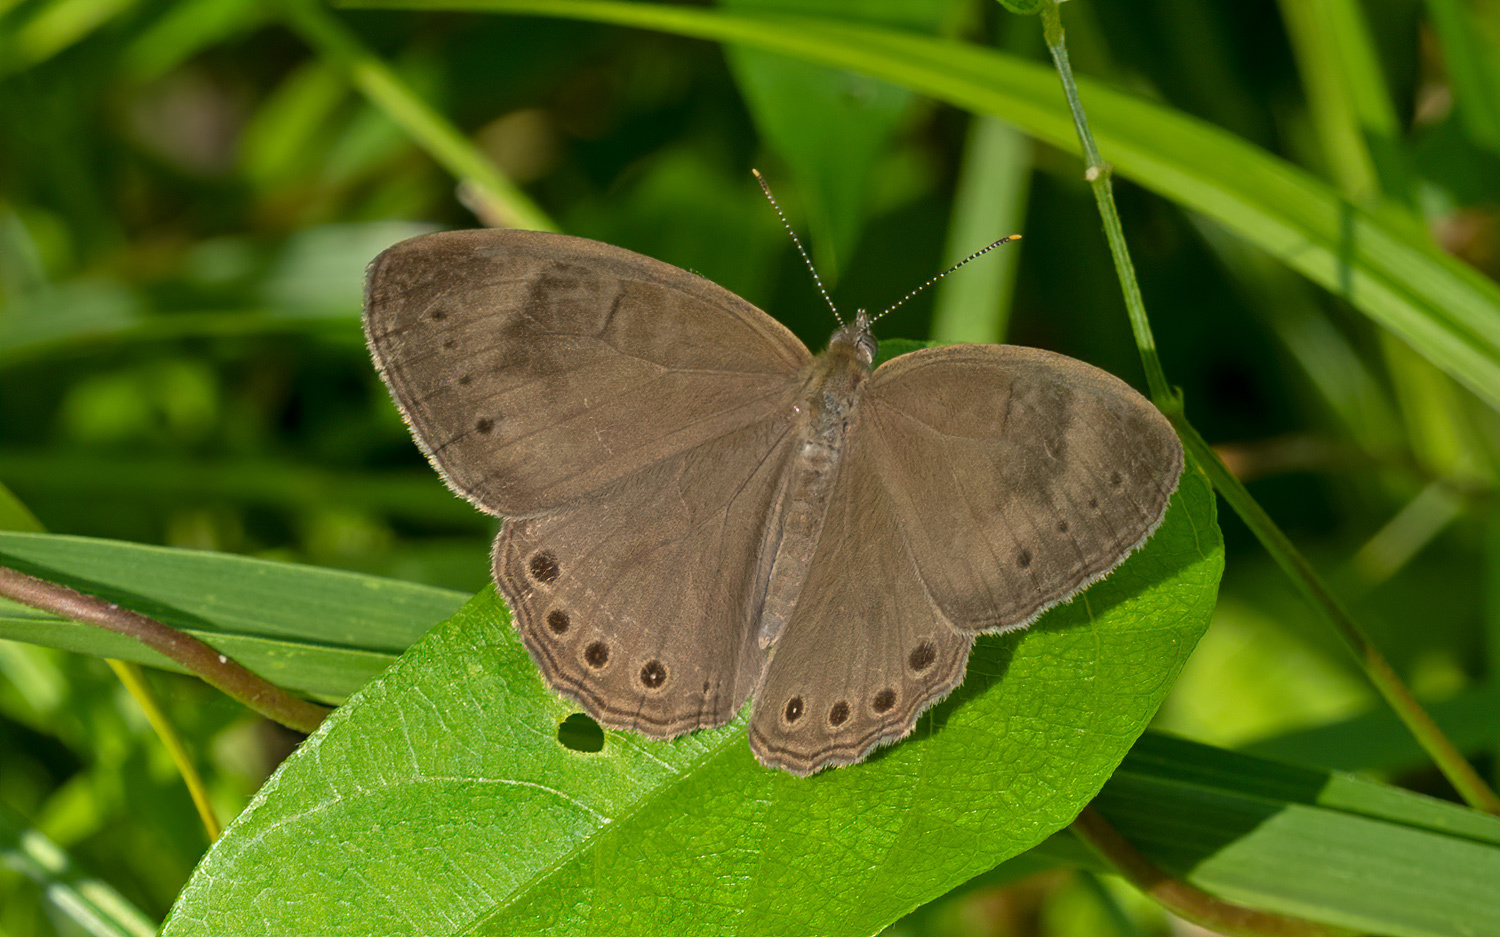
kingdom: Animalia
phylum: Arthropoda
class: Insecta
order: Lepidoptera
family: Nymphalidae
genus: Lethe
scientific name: Lethe eurydice
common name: Eyed brown
